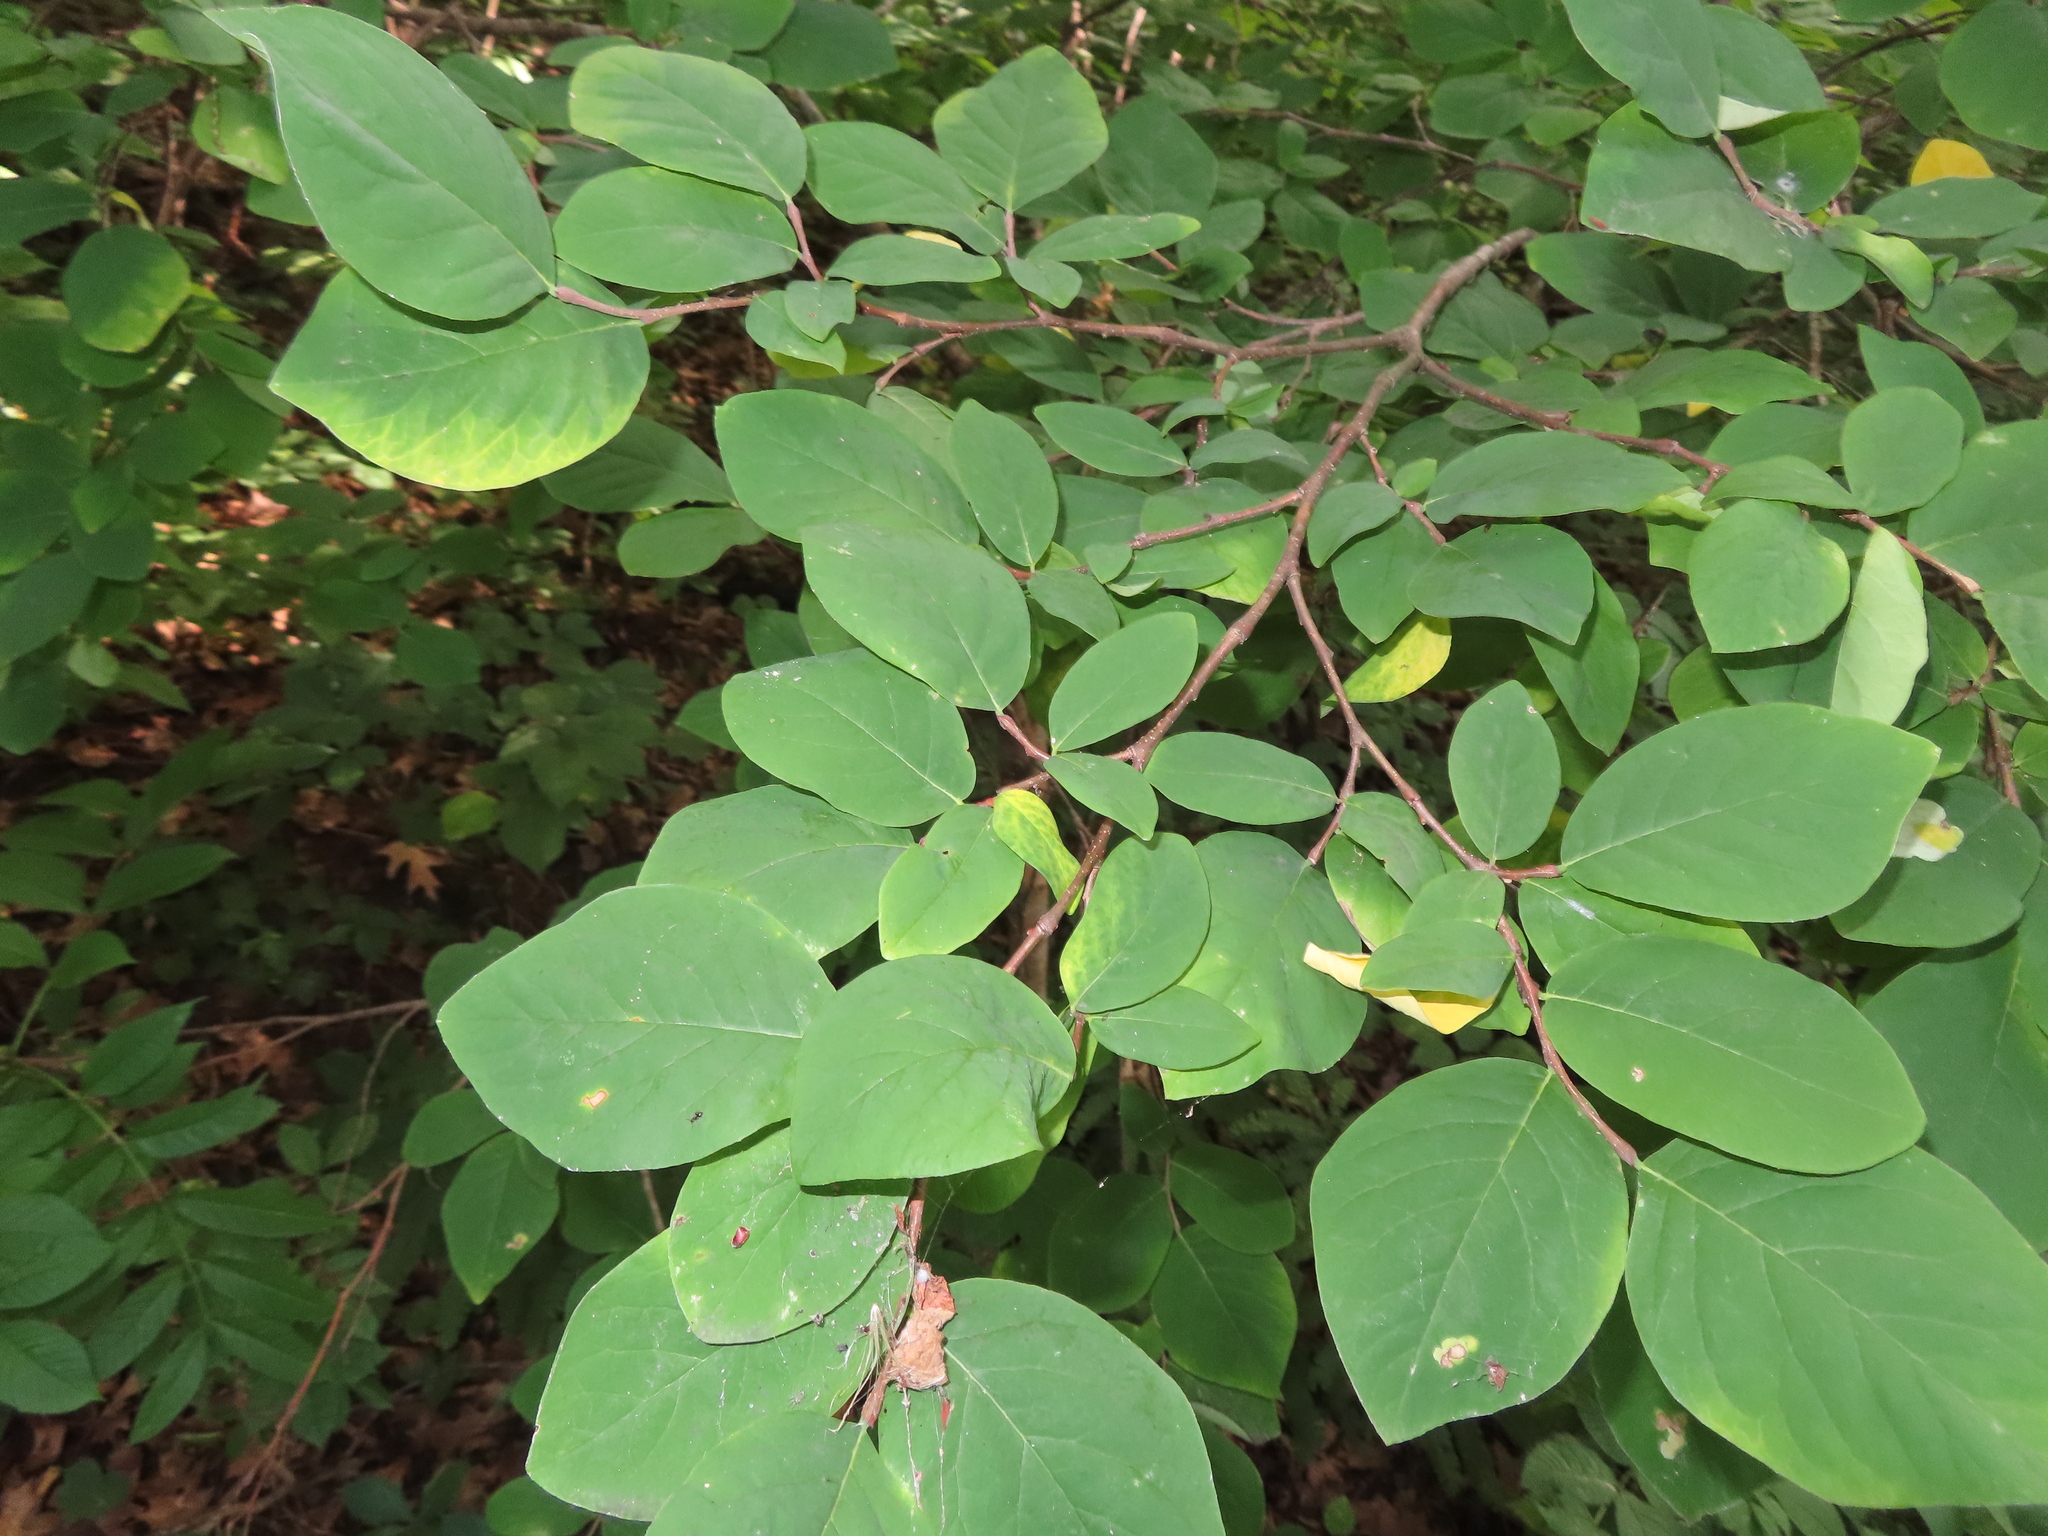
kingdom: Plantae
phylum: Tracheophyta
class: Magnoliopsida
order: Malvales
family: Thymelaeaceae
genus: Dirca
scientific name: Dirca palustris
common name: Leatherwood
